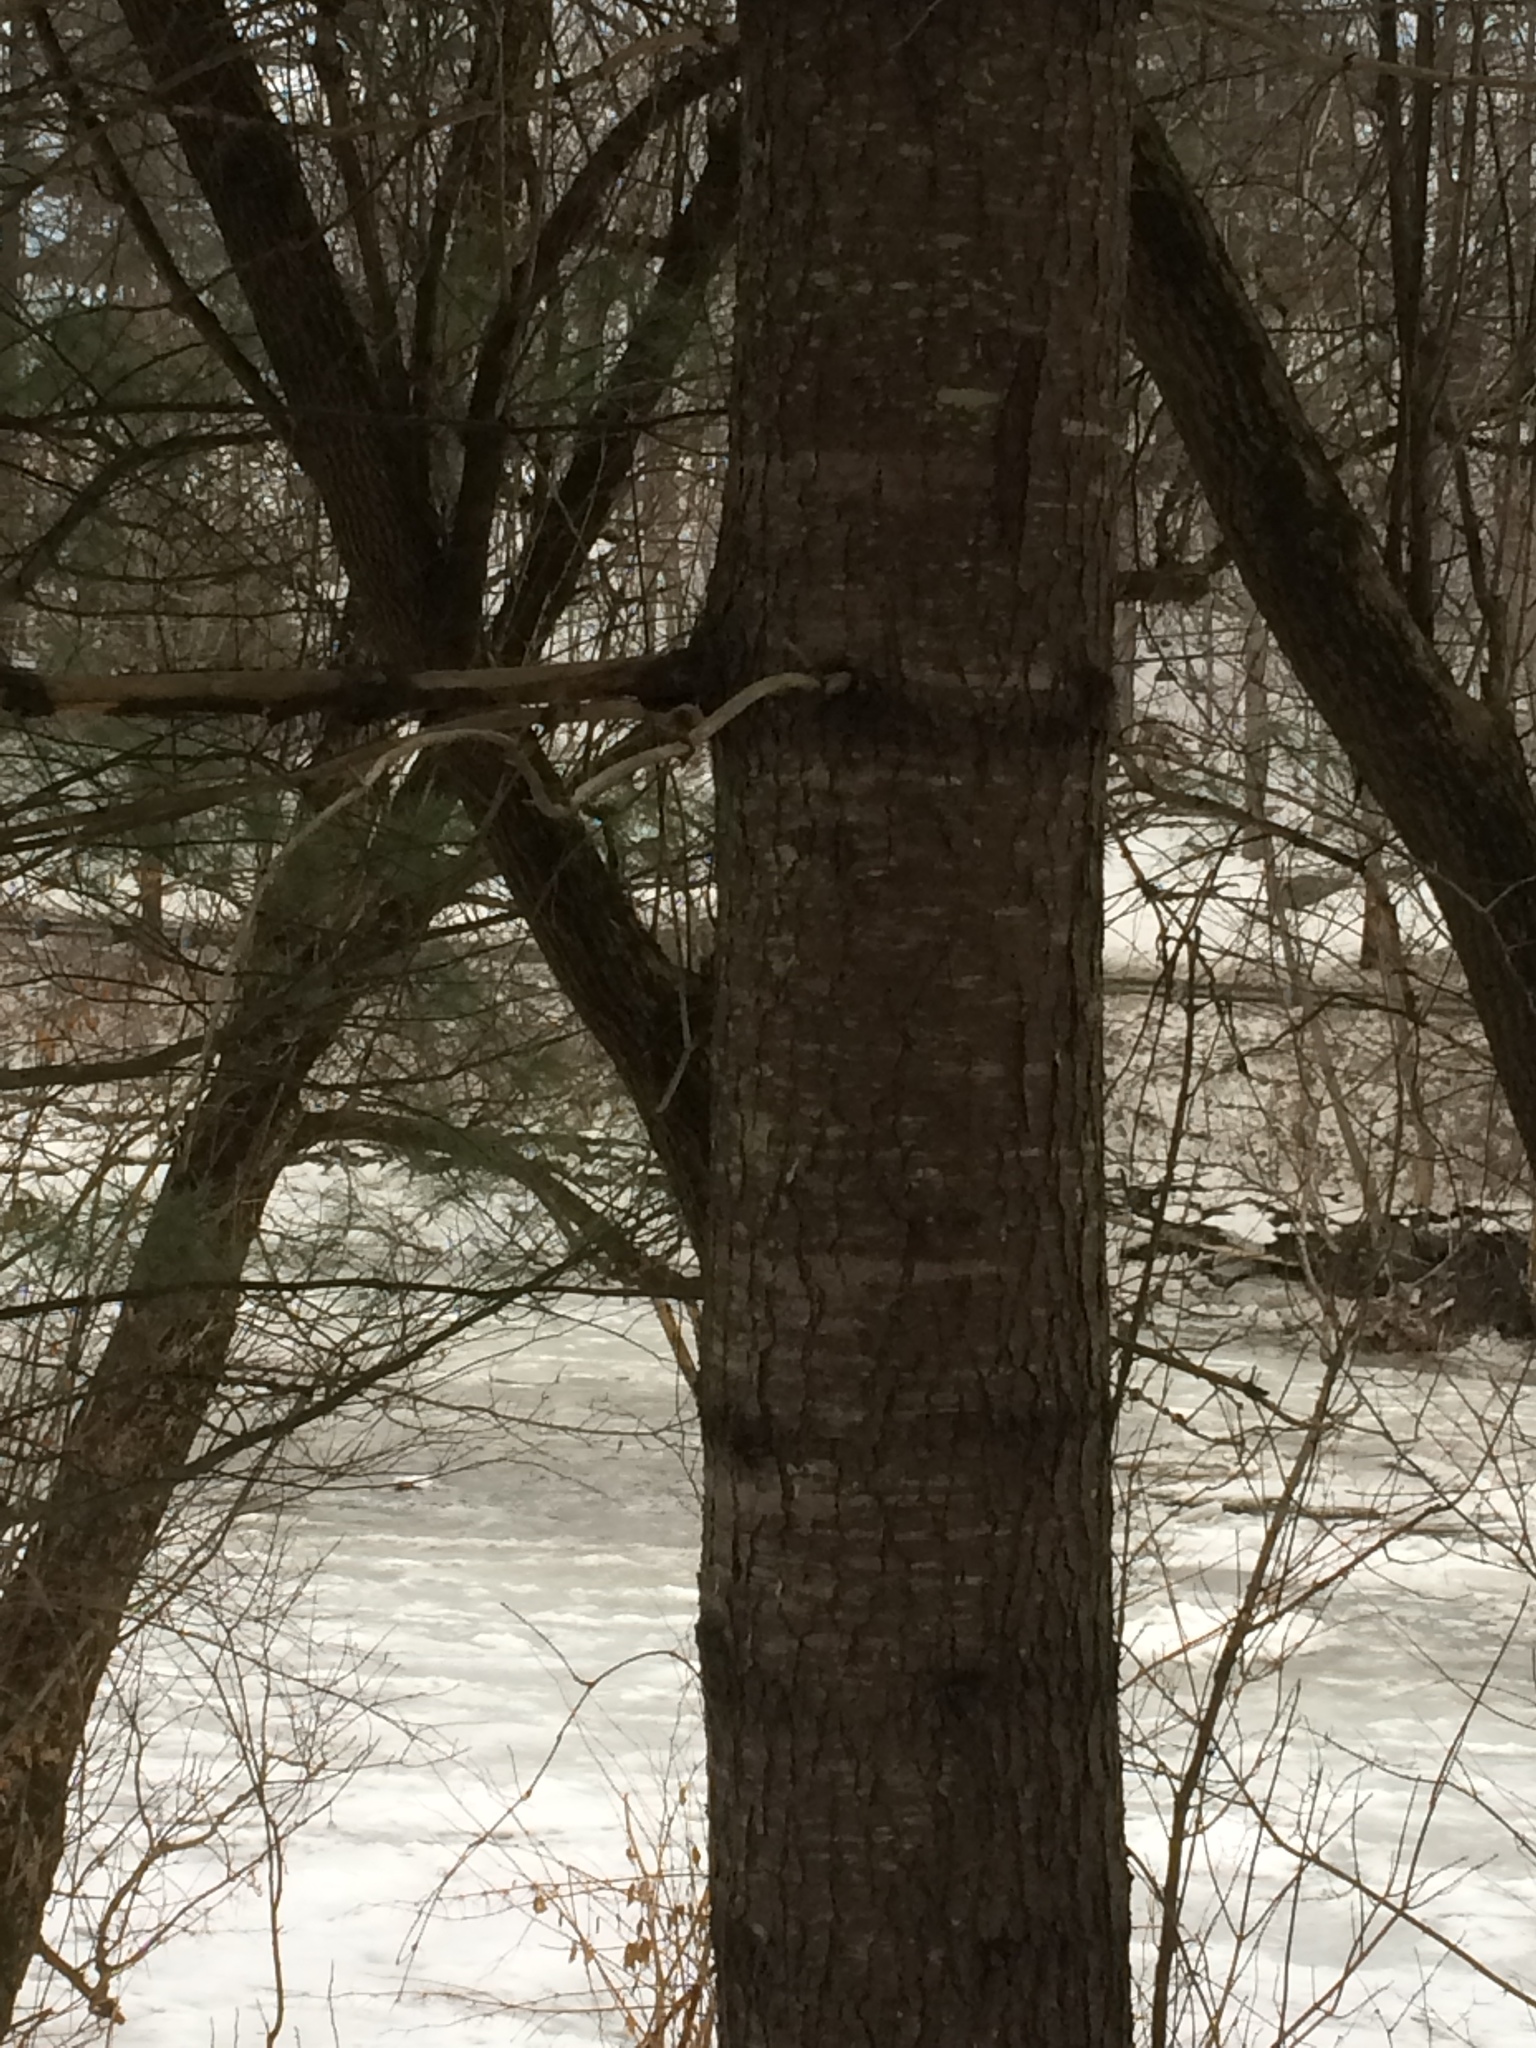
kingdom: Plantae
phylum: Tracheophyta
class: Pinopsida
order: Pinales
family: Pinaceae
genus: Pinus
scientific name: Pinus strobus
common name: Weymouth pine
